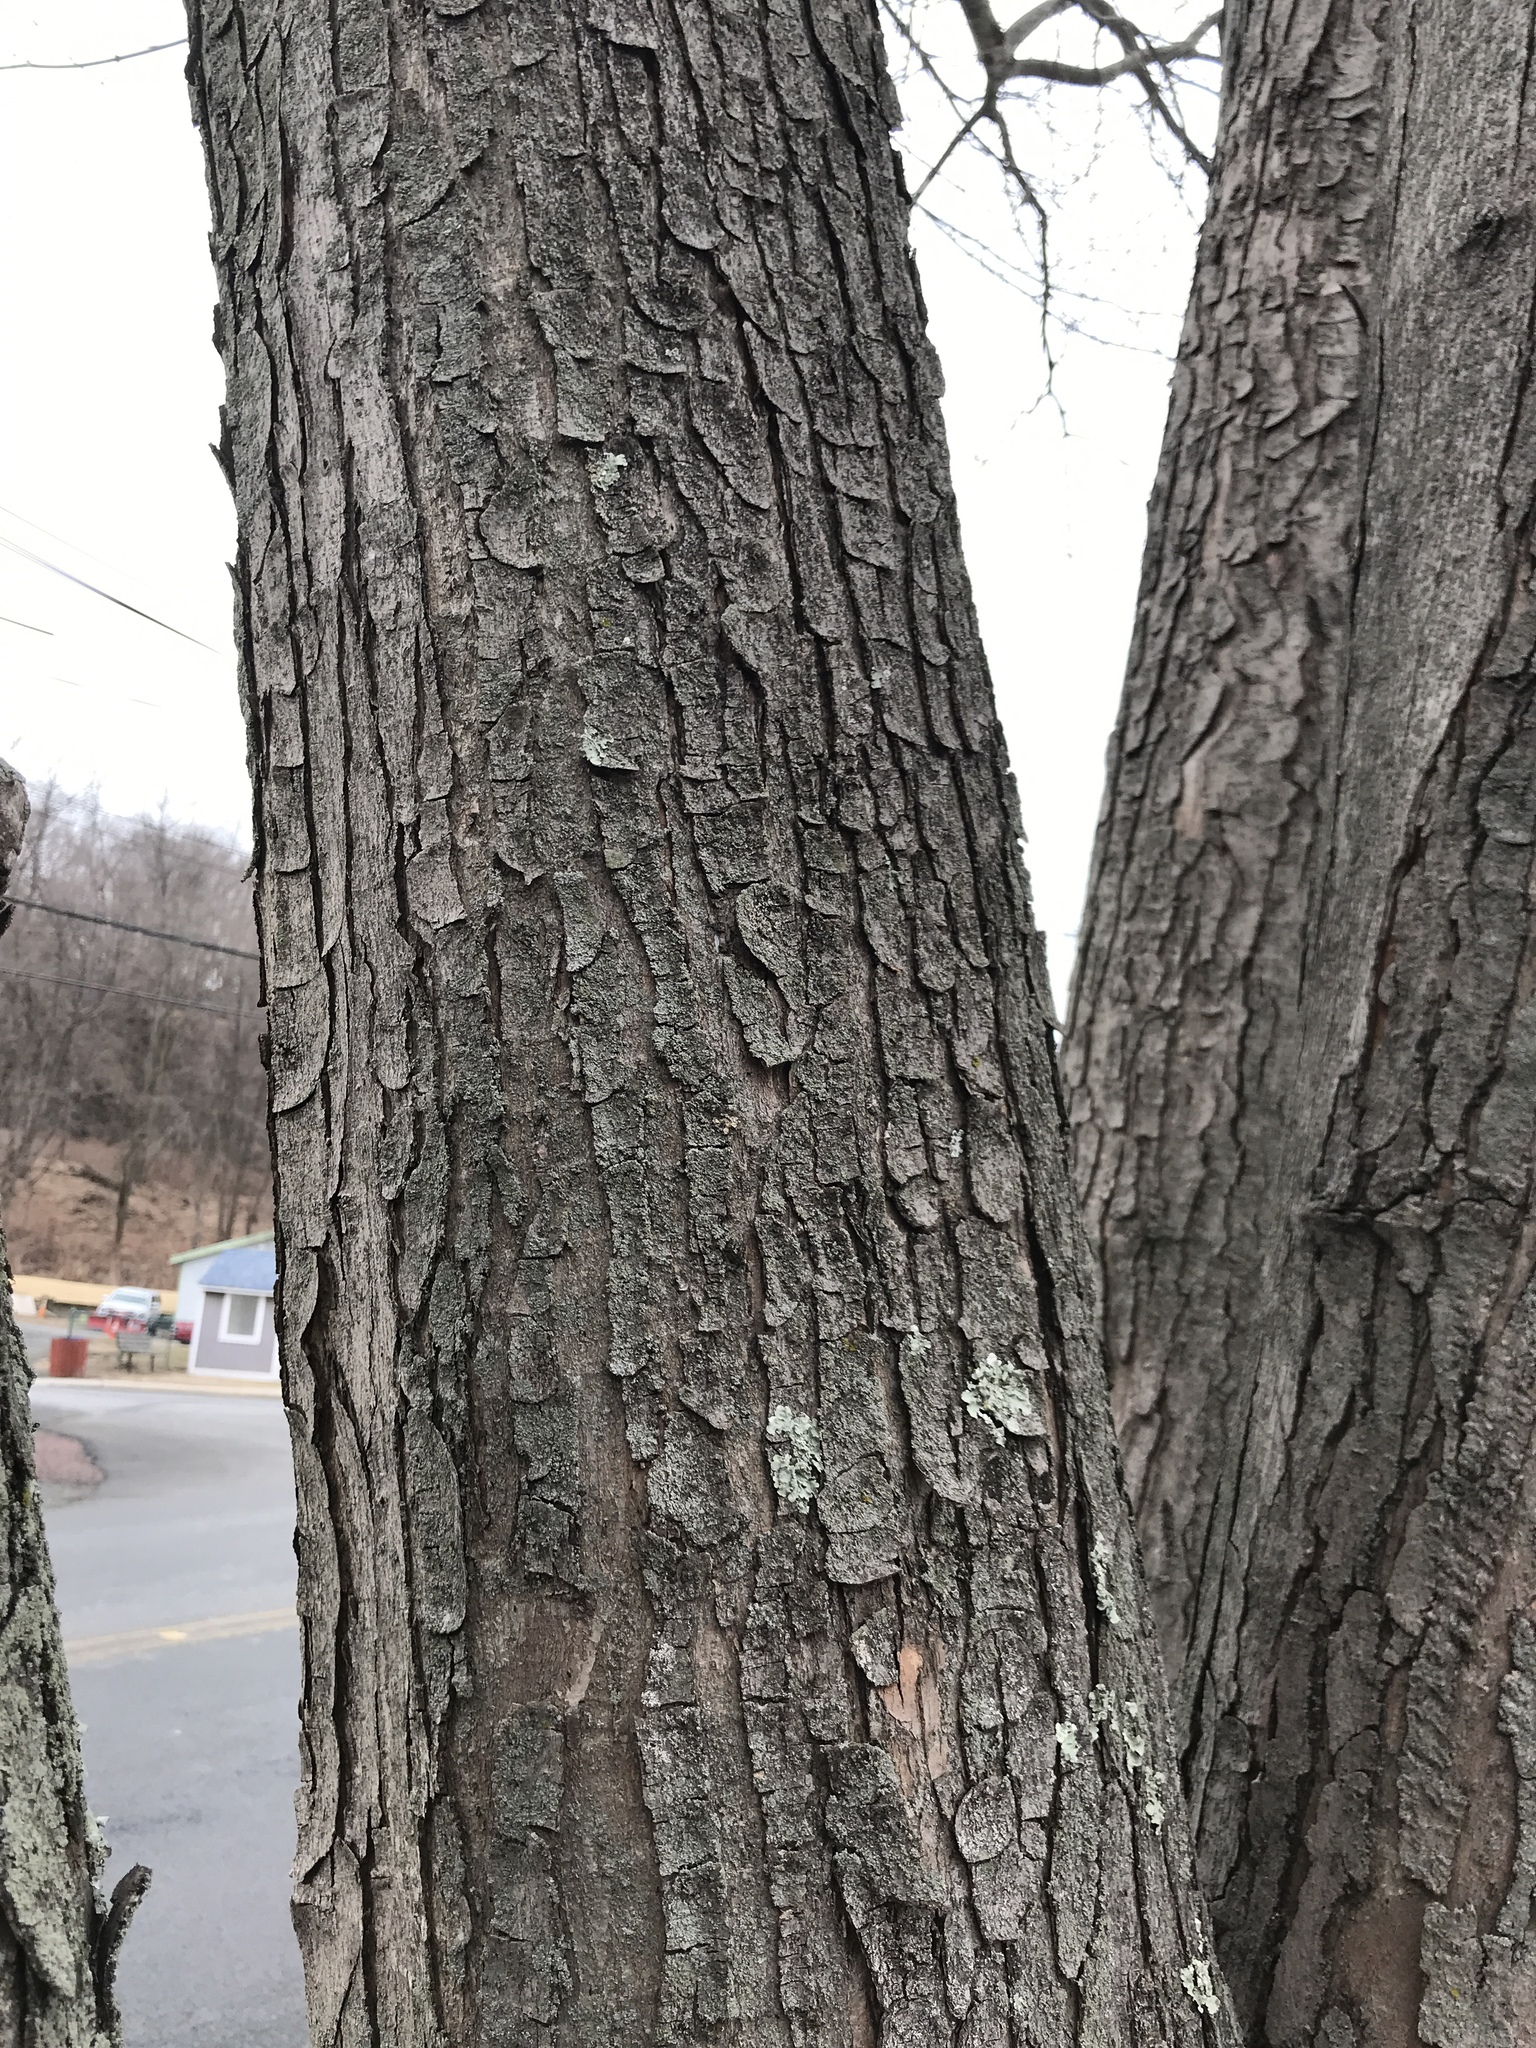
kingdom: Plantae
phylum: Tracheophyta
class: Magnoliopsida
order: Sapindales
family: Sapindaceae
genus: Acer
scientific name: Acer saccharinum
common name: Silver maple
